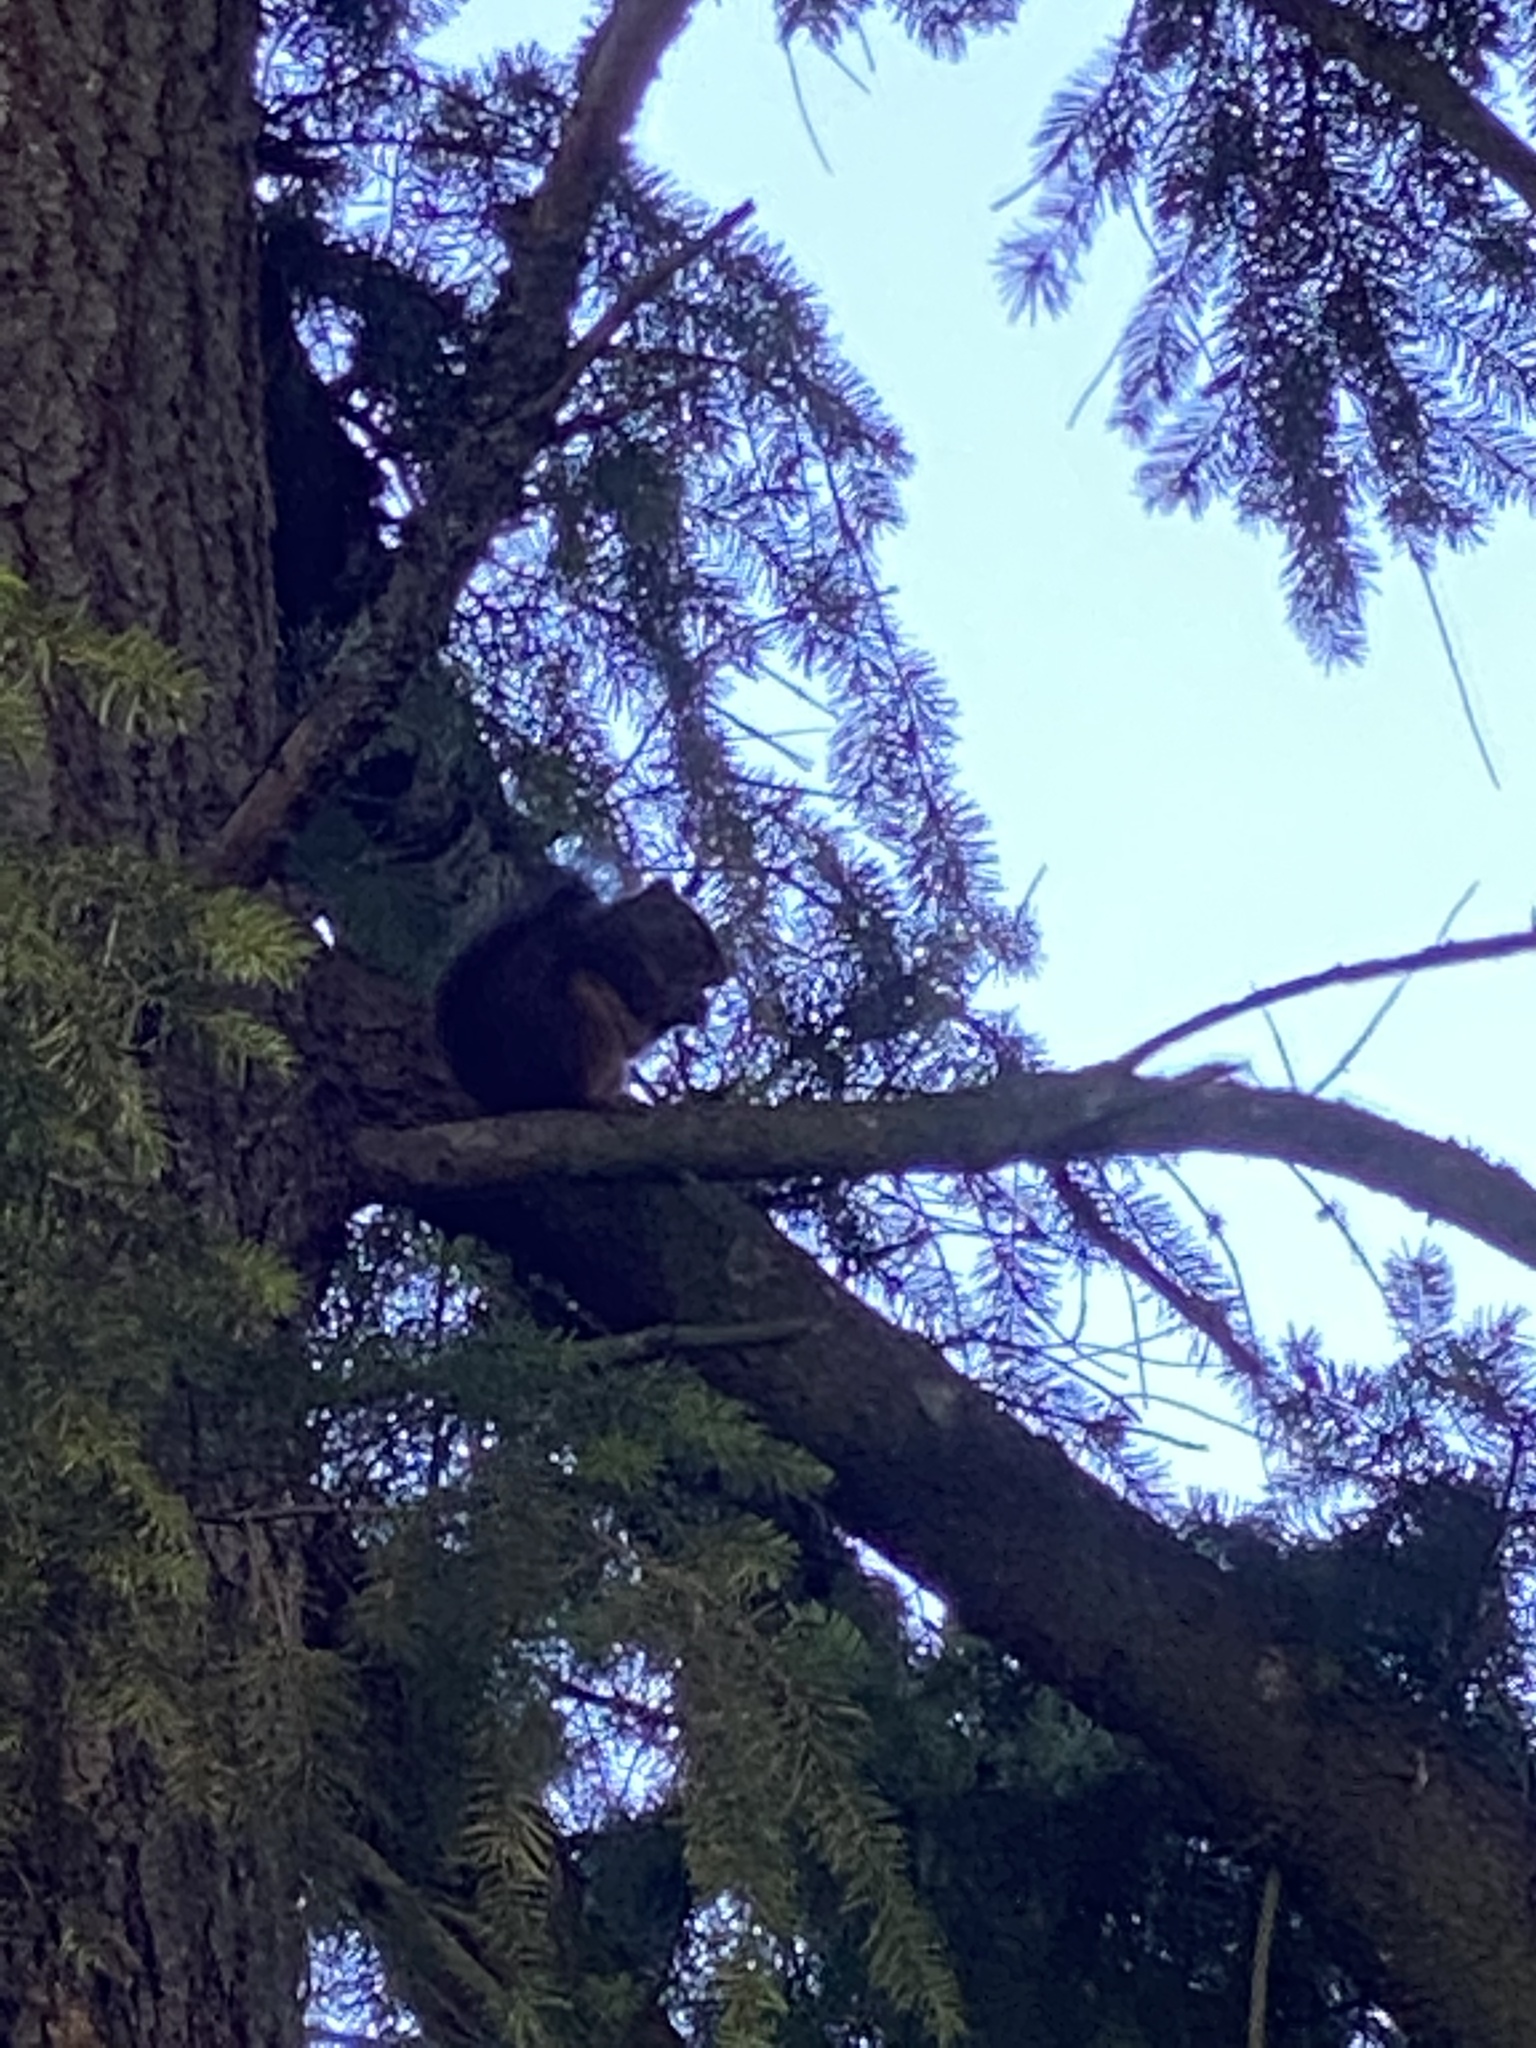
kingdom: Animalia
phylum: Chordata
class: Mammalia
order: Rodentia
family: Sciuridae
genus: Tamiasciurus
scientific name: Tamiasciurus douglasii
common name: Douglas's squirrel
